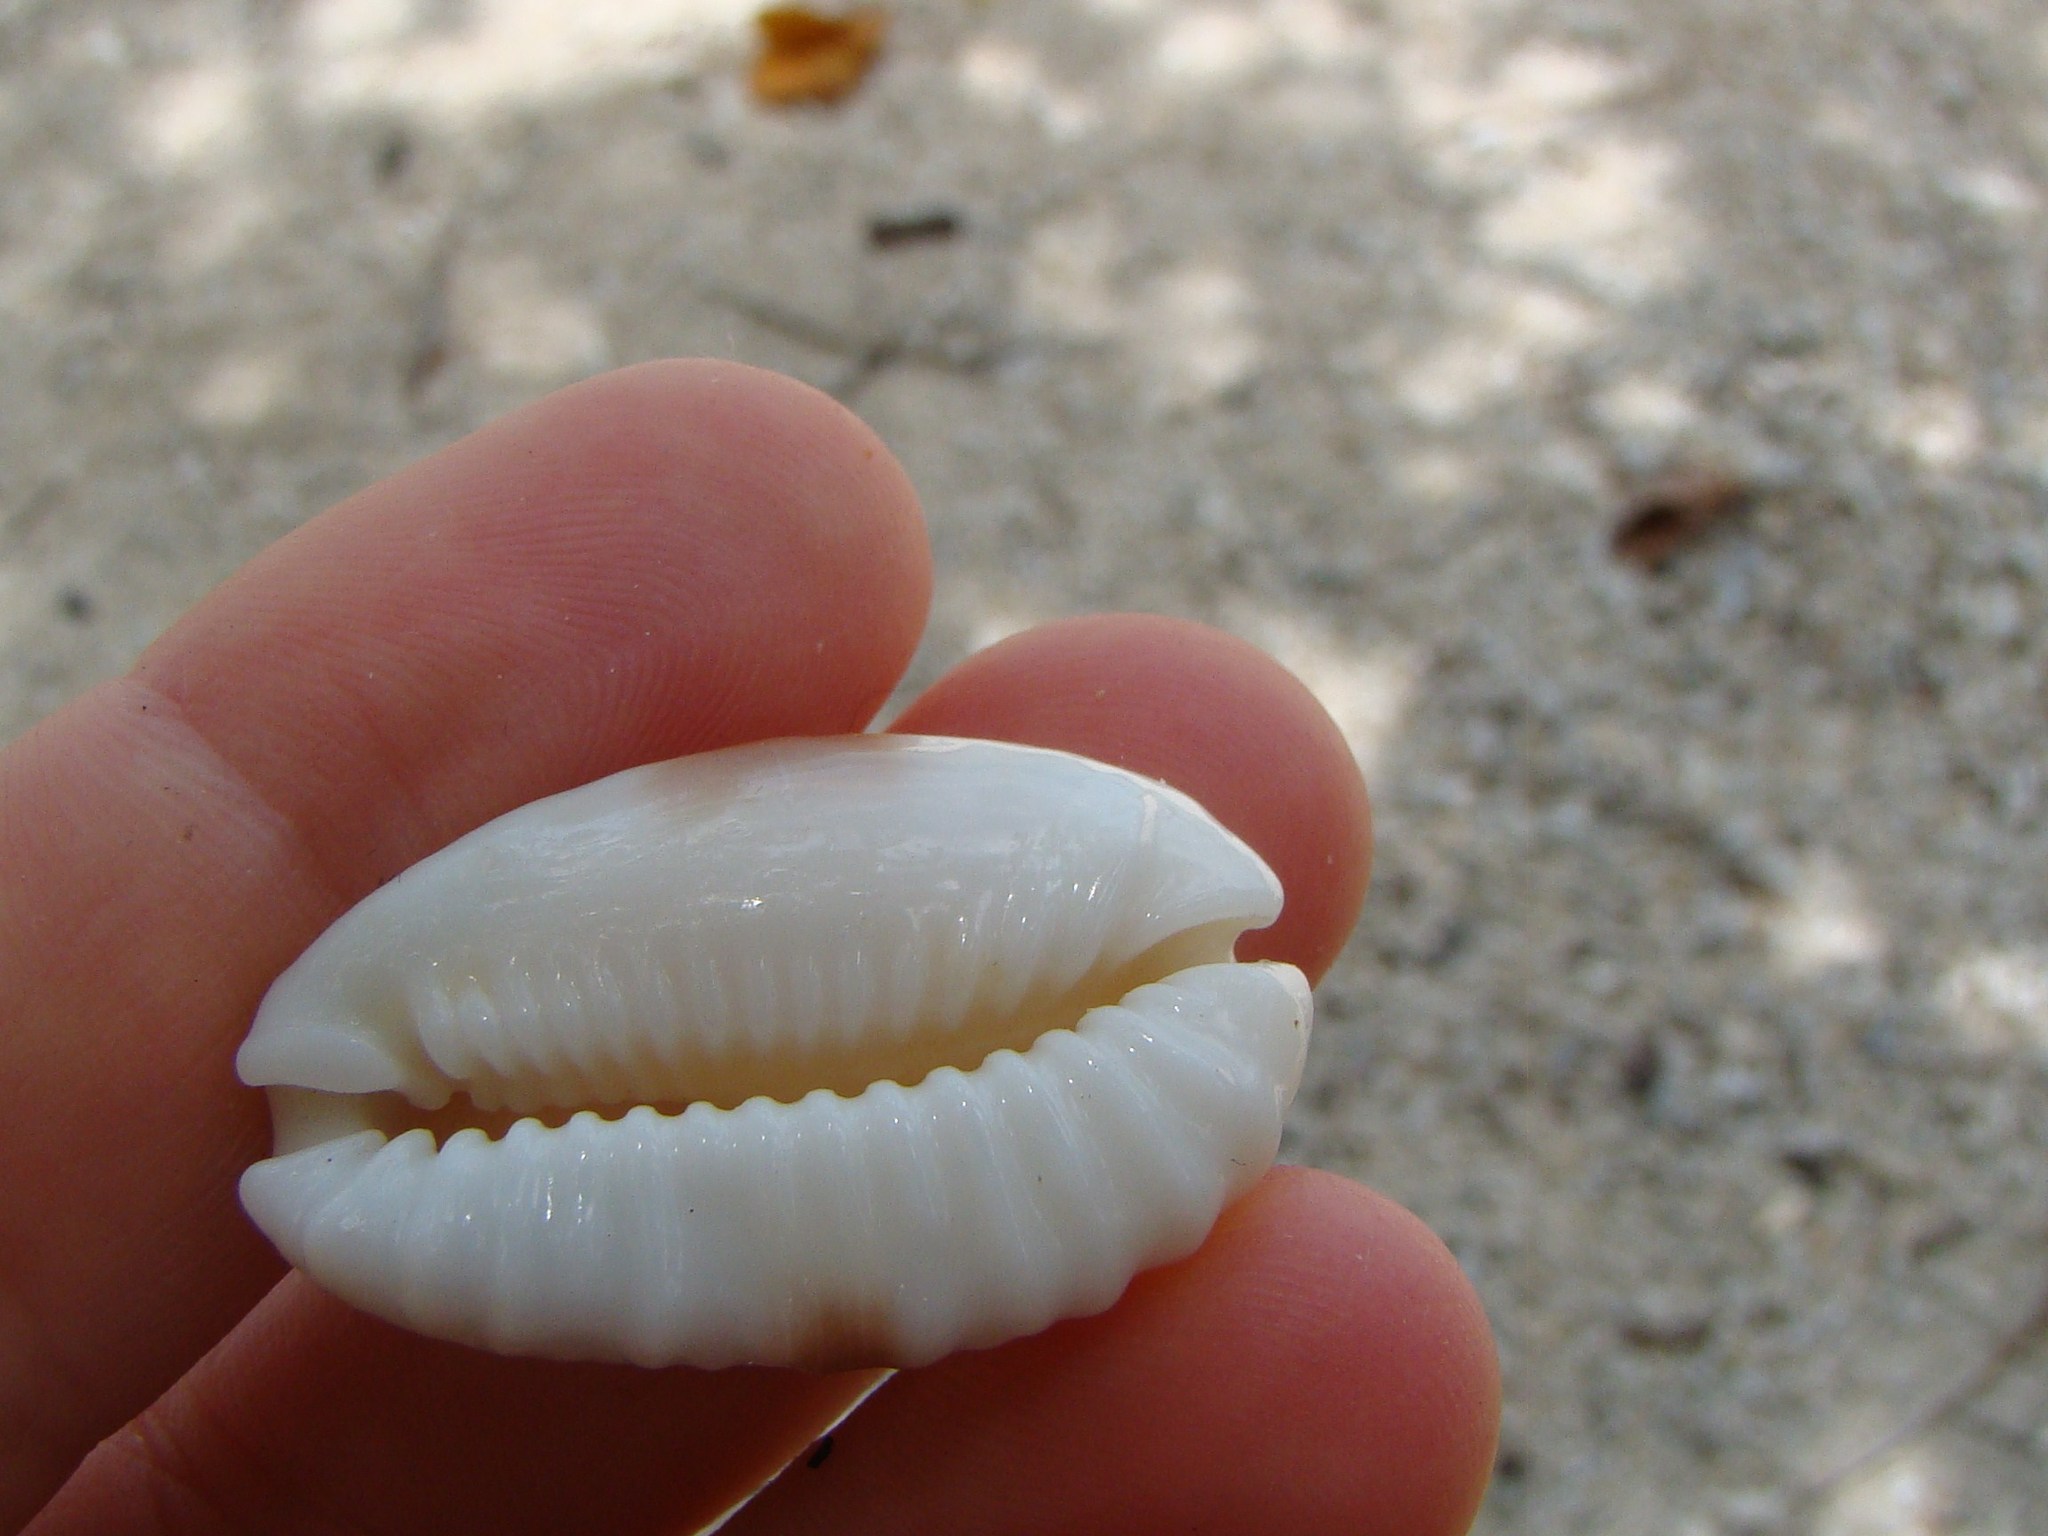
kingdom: Animalia
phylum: Mollusca
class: Gastropoda
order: Littorinimorpha
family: Cypraeidae
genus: Naria
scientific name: Naria erosa
